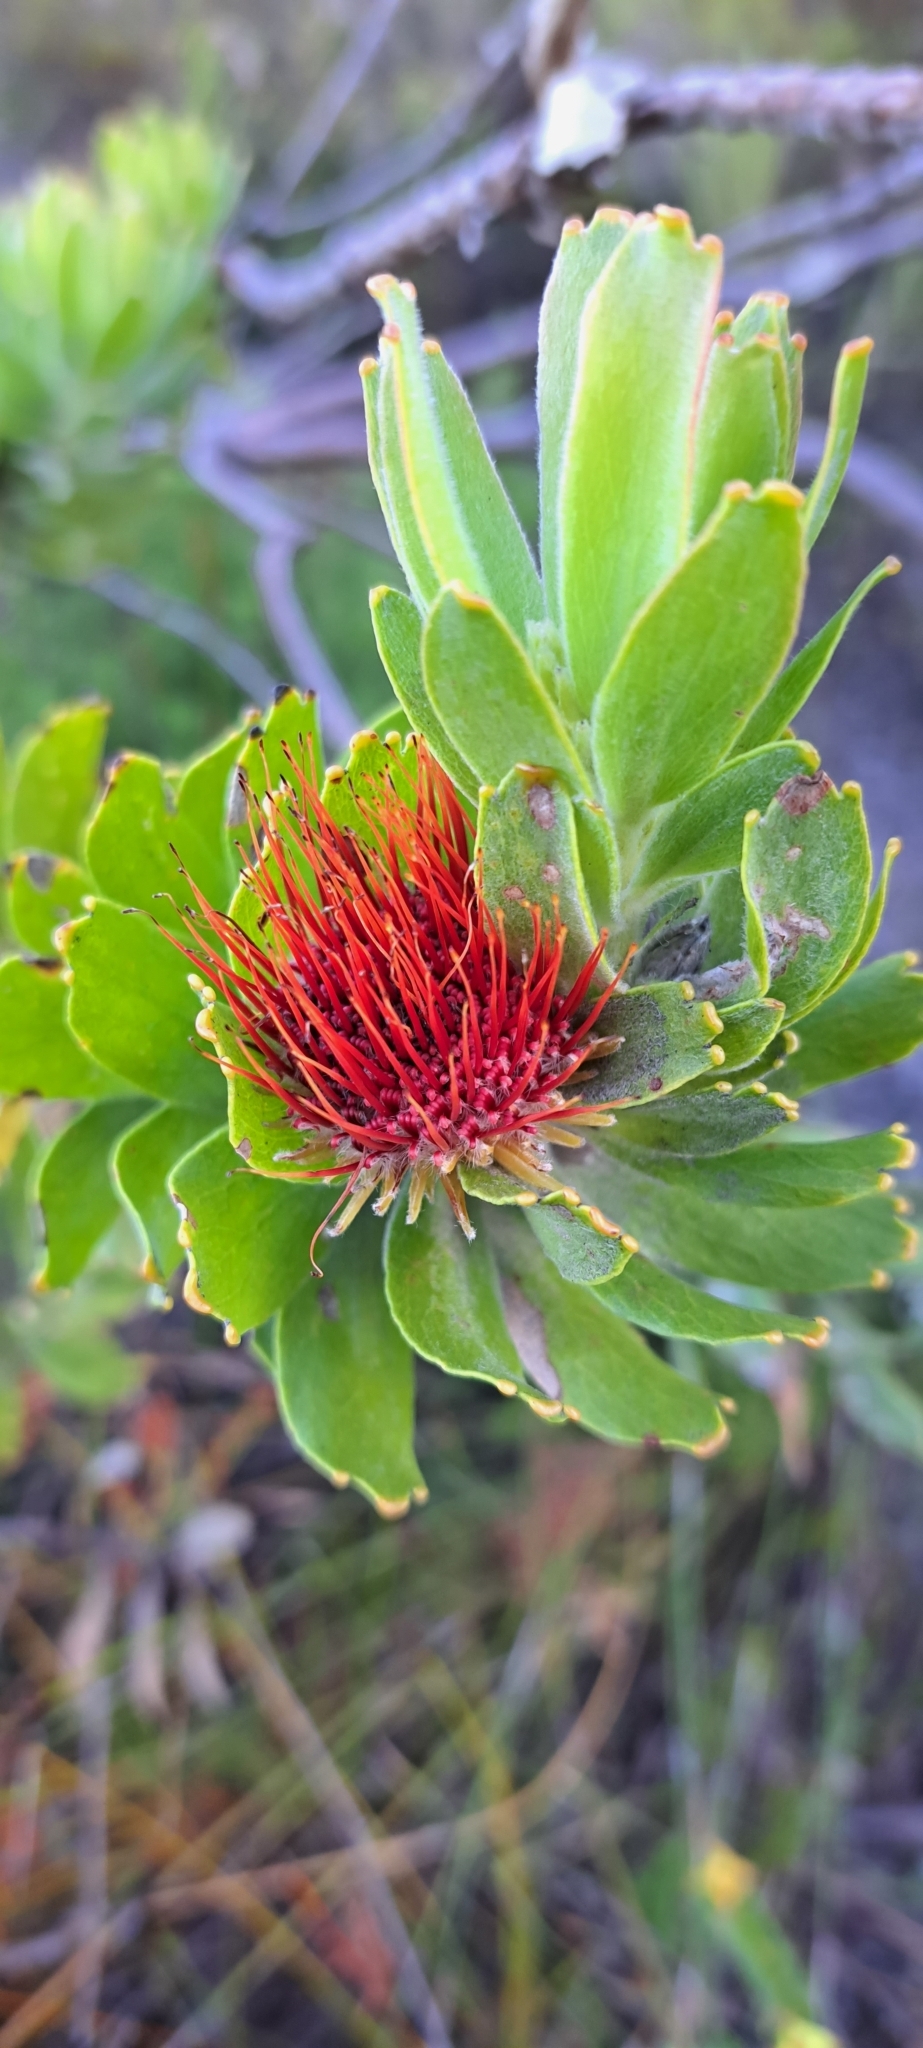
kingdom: Plantae
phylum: Tracheophyta
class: Magnoliopsida
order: Proteales
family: Proteaceae
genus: Leucospermum
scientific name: Leucospermum oleifolium
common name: Matches
